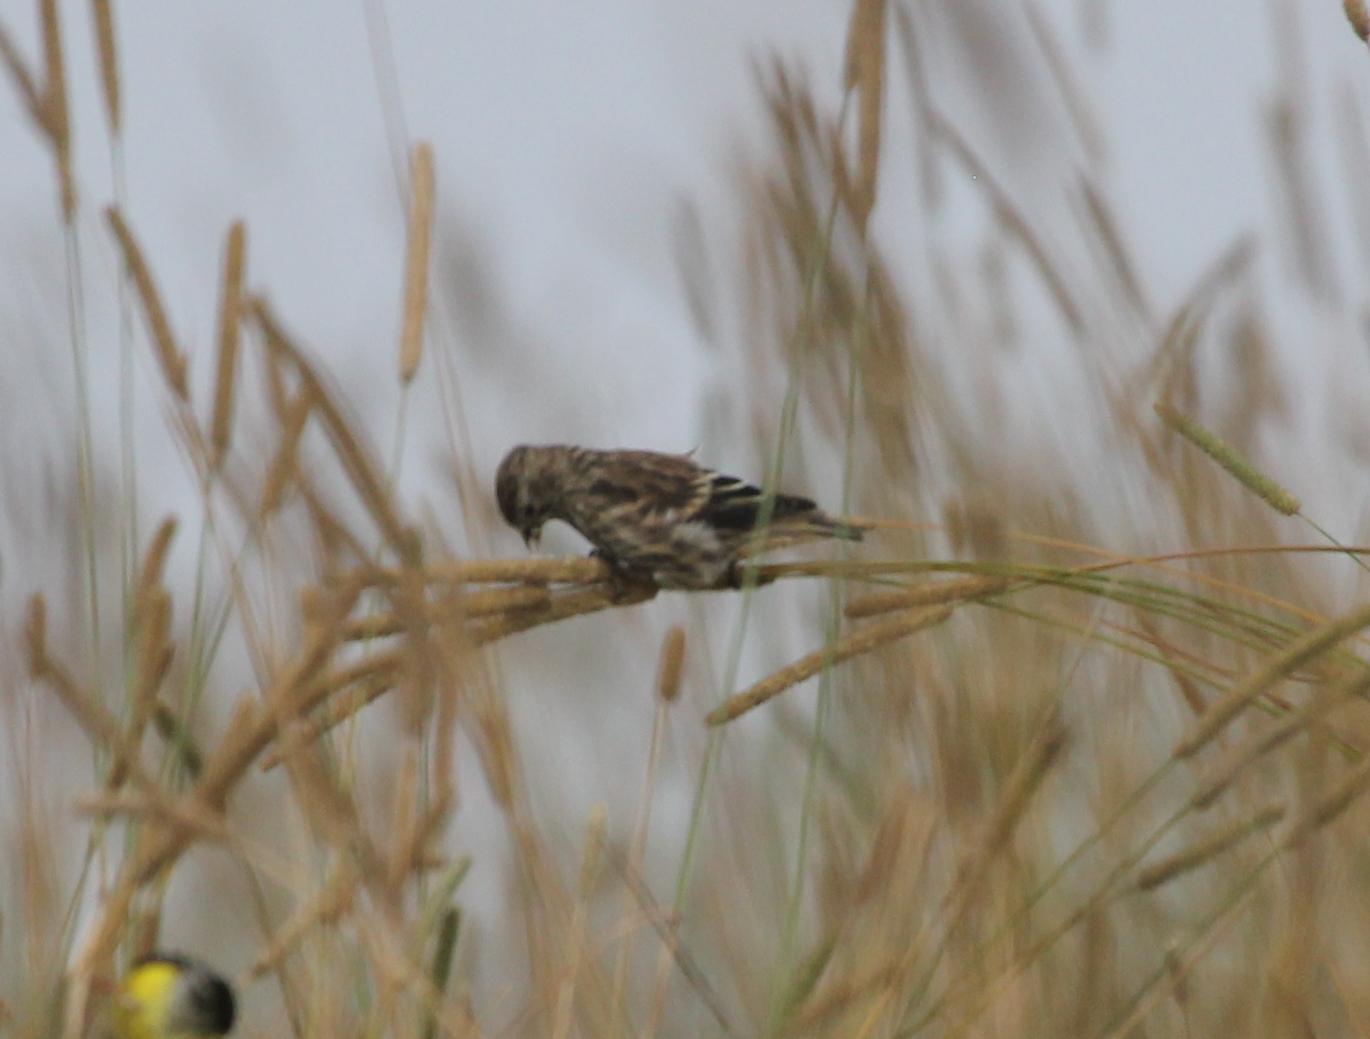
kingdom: Animalia
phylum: Chordata
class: Aves
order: Passeriformes
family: Fringillidae
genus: Spinus
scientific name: Spinus pinus
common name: Pine siskin
